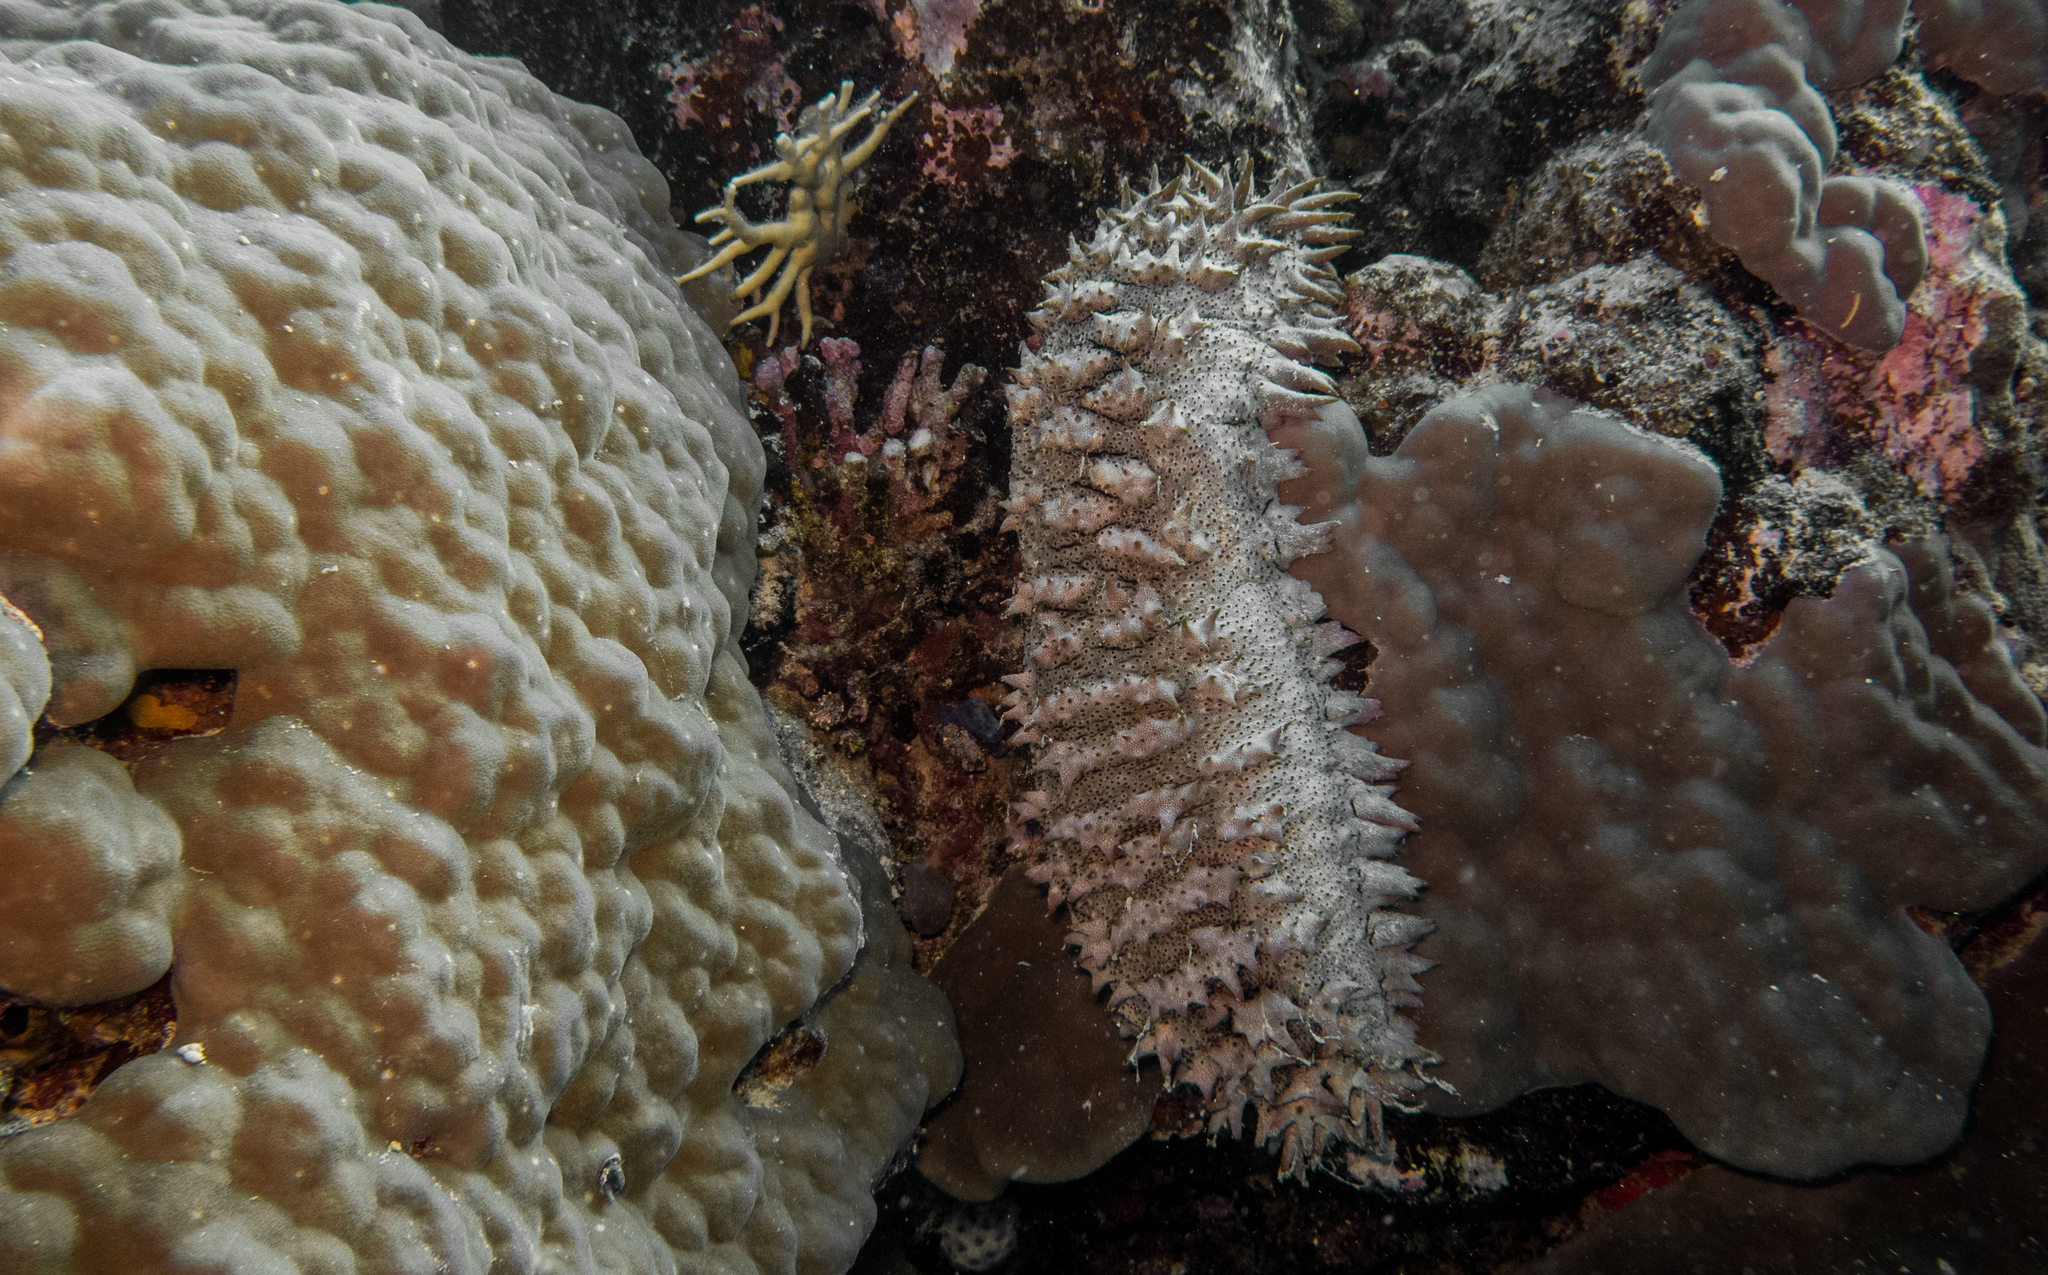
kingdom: Animalia
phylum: Echinodermata
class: Holothuroidea
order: Synallactida
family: Stichopodidae
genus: Thelenota
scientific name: Thelenota ananas
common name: Prickly redfish
